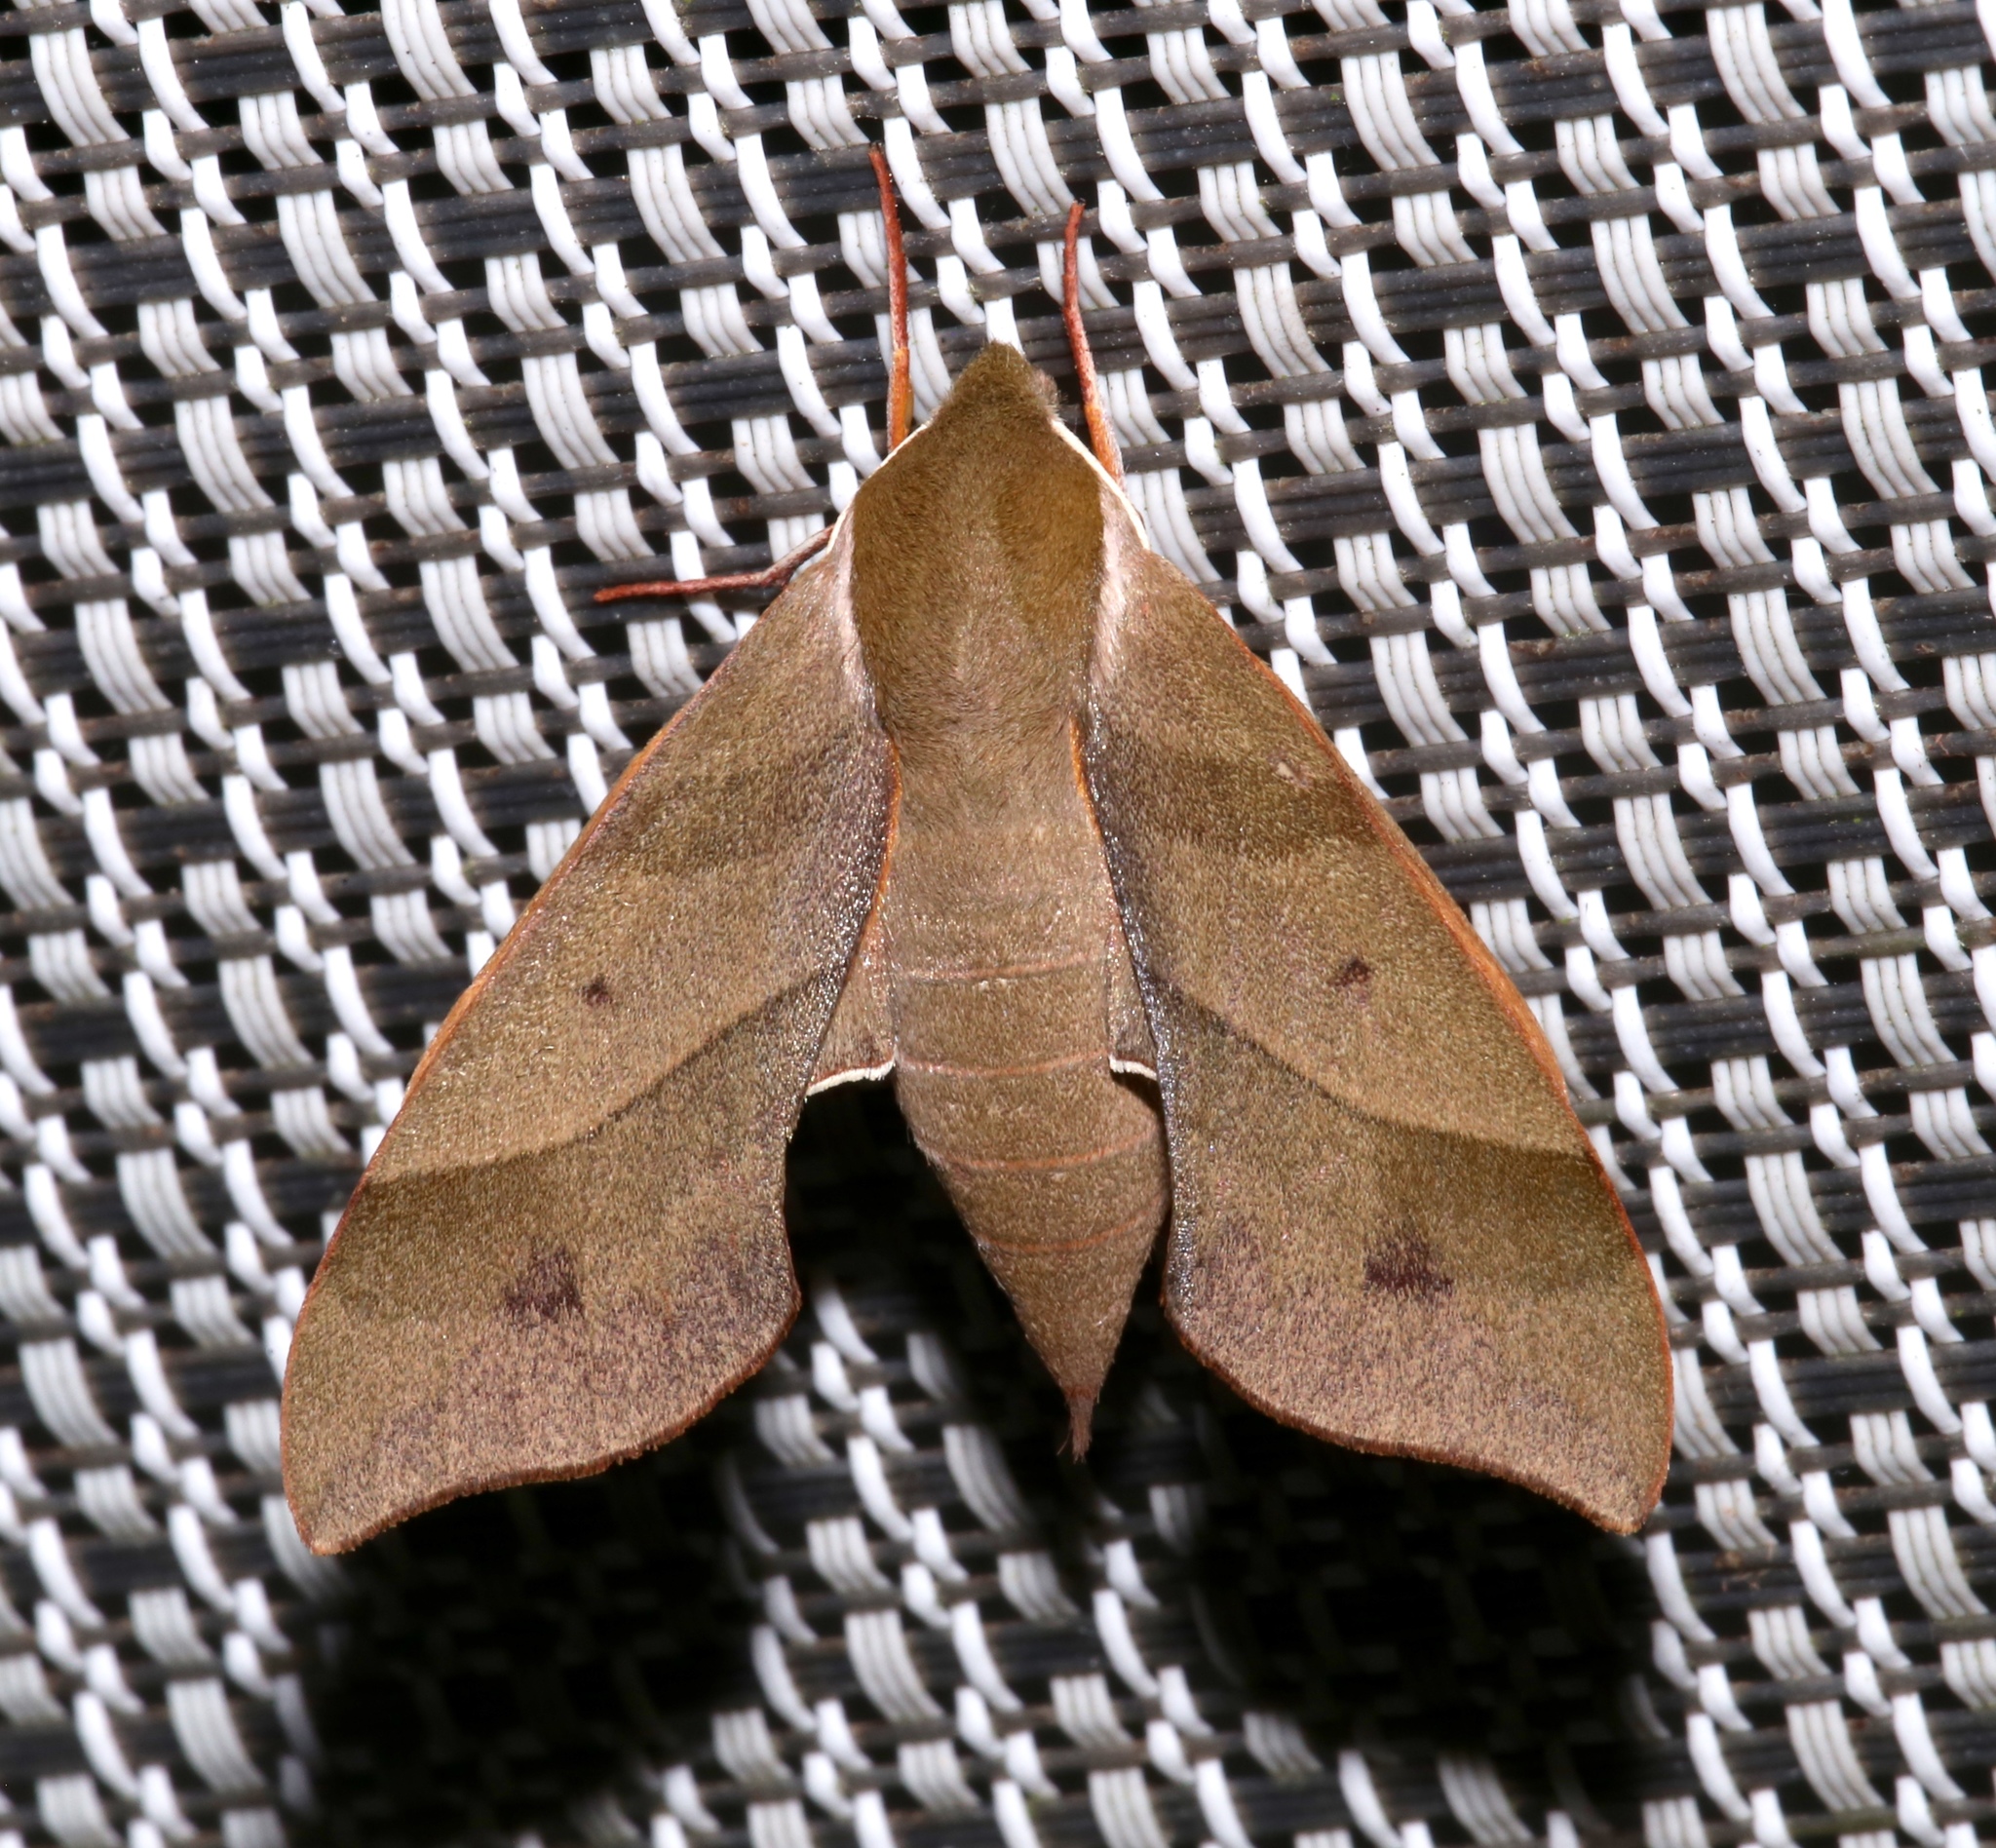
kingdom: Animalia
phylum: Arthropoda
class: Insecta
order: Lepidoptera
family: Sphingidae
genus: Darapsa
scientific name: Darapsa myron
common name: Hog sphinx
